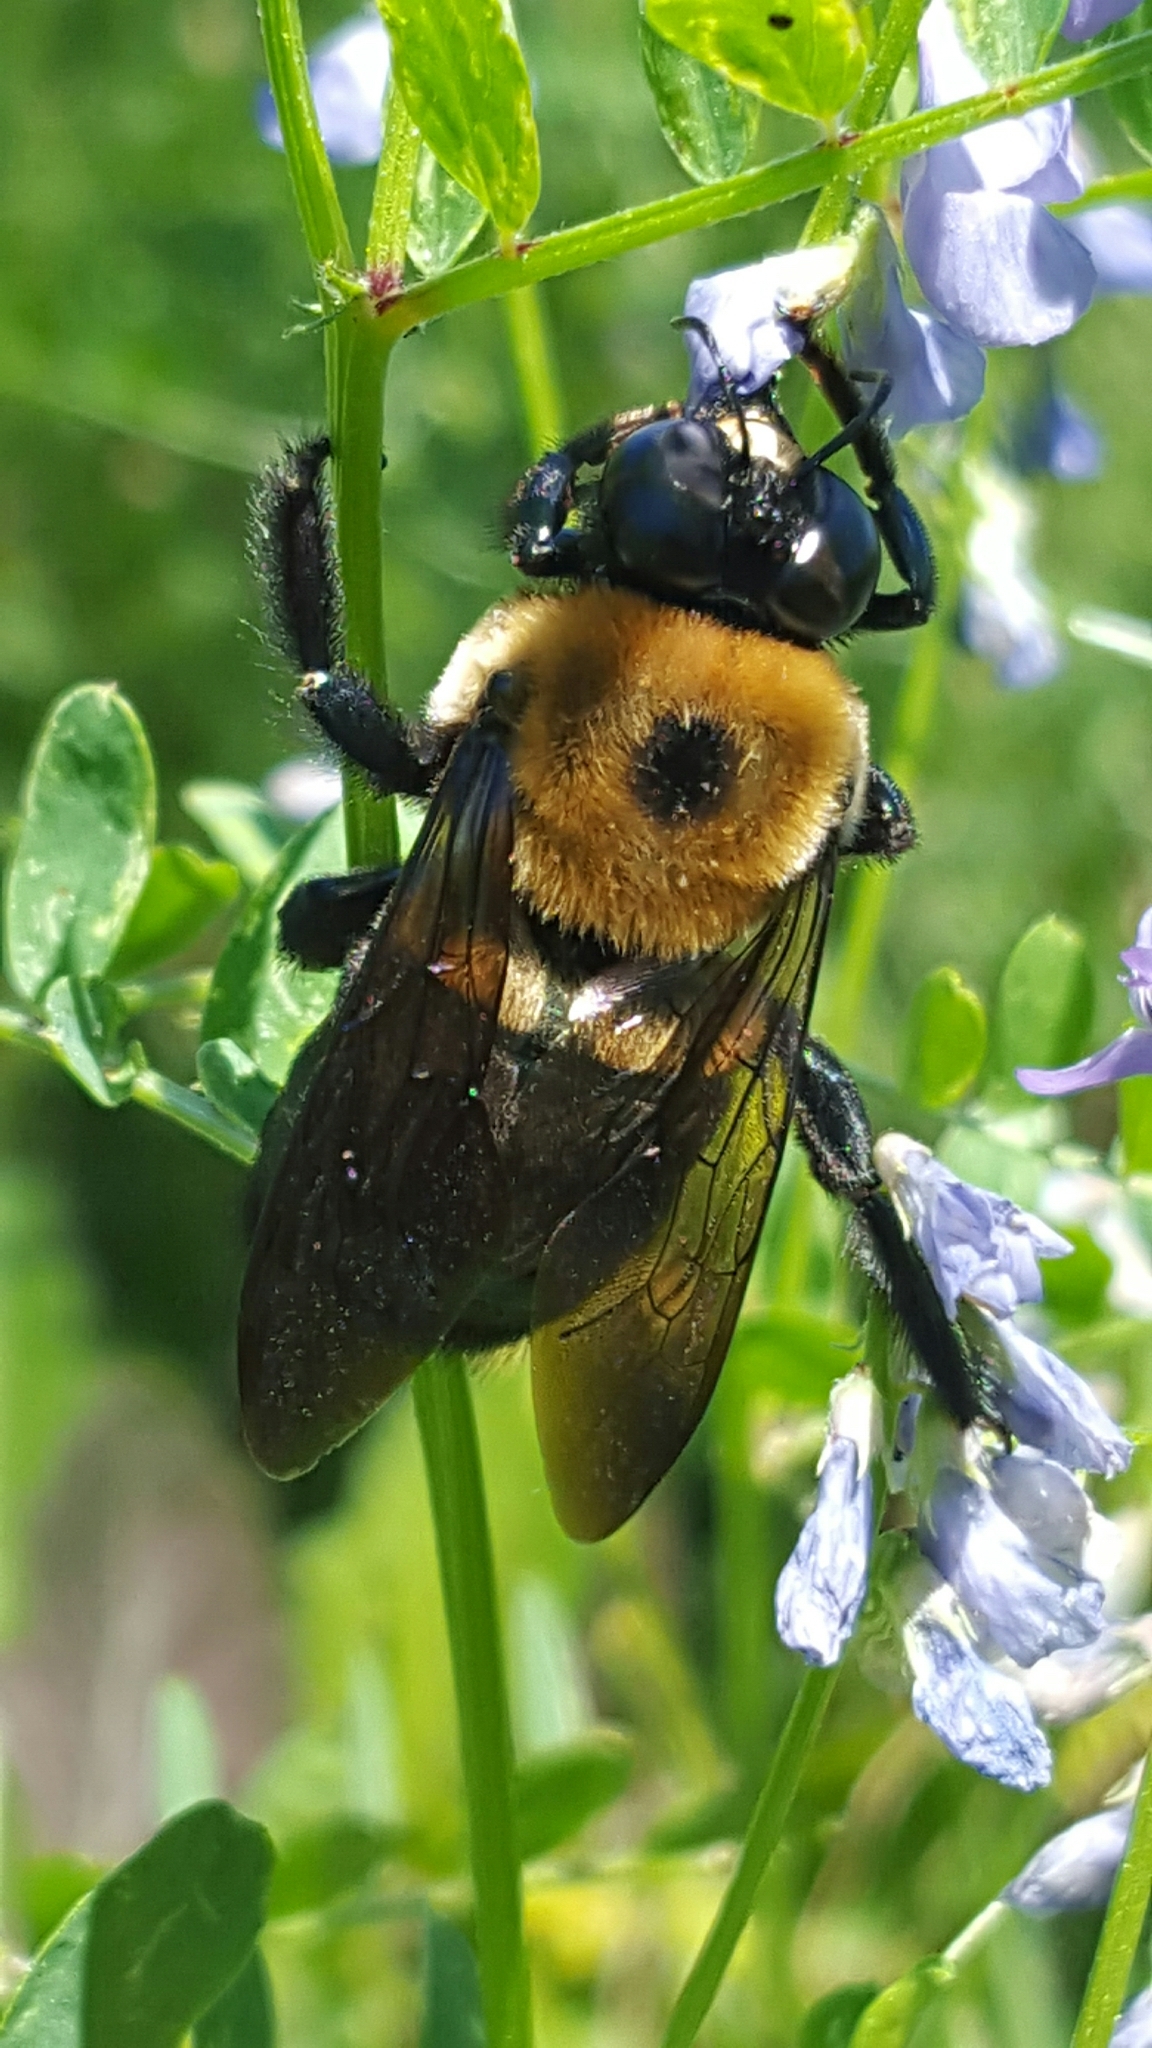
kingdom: Animalia
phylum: Arthropoda
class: Insecta
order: Hymenoptera
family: Apidae
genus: Xylocopa
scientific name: Xylocopa virginica
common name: Carpenter bee
